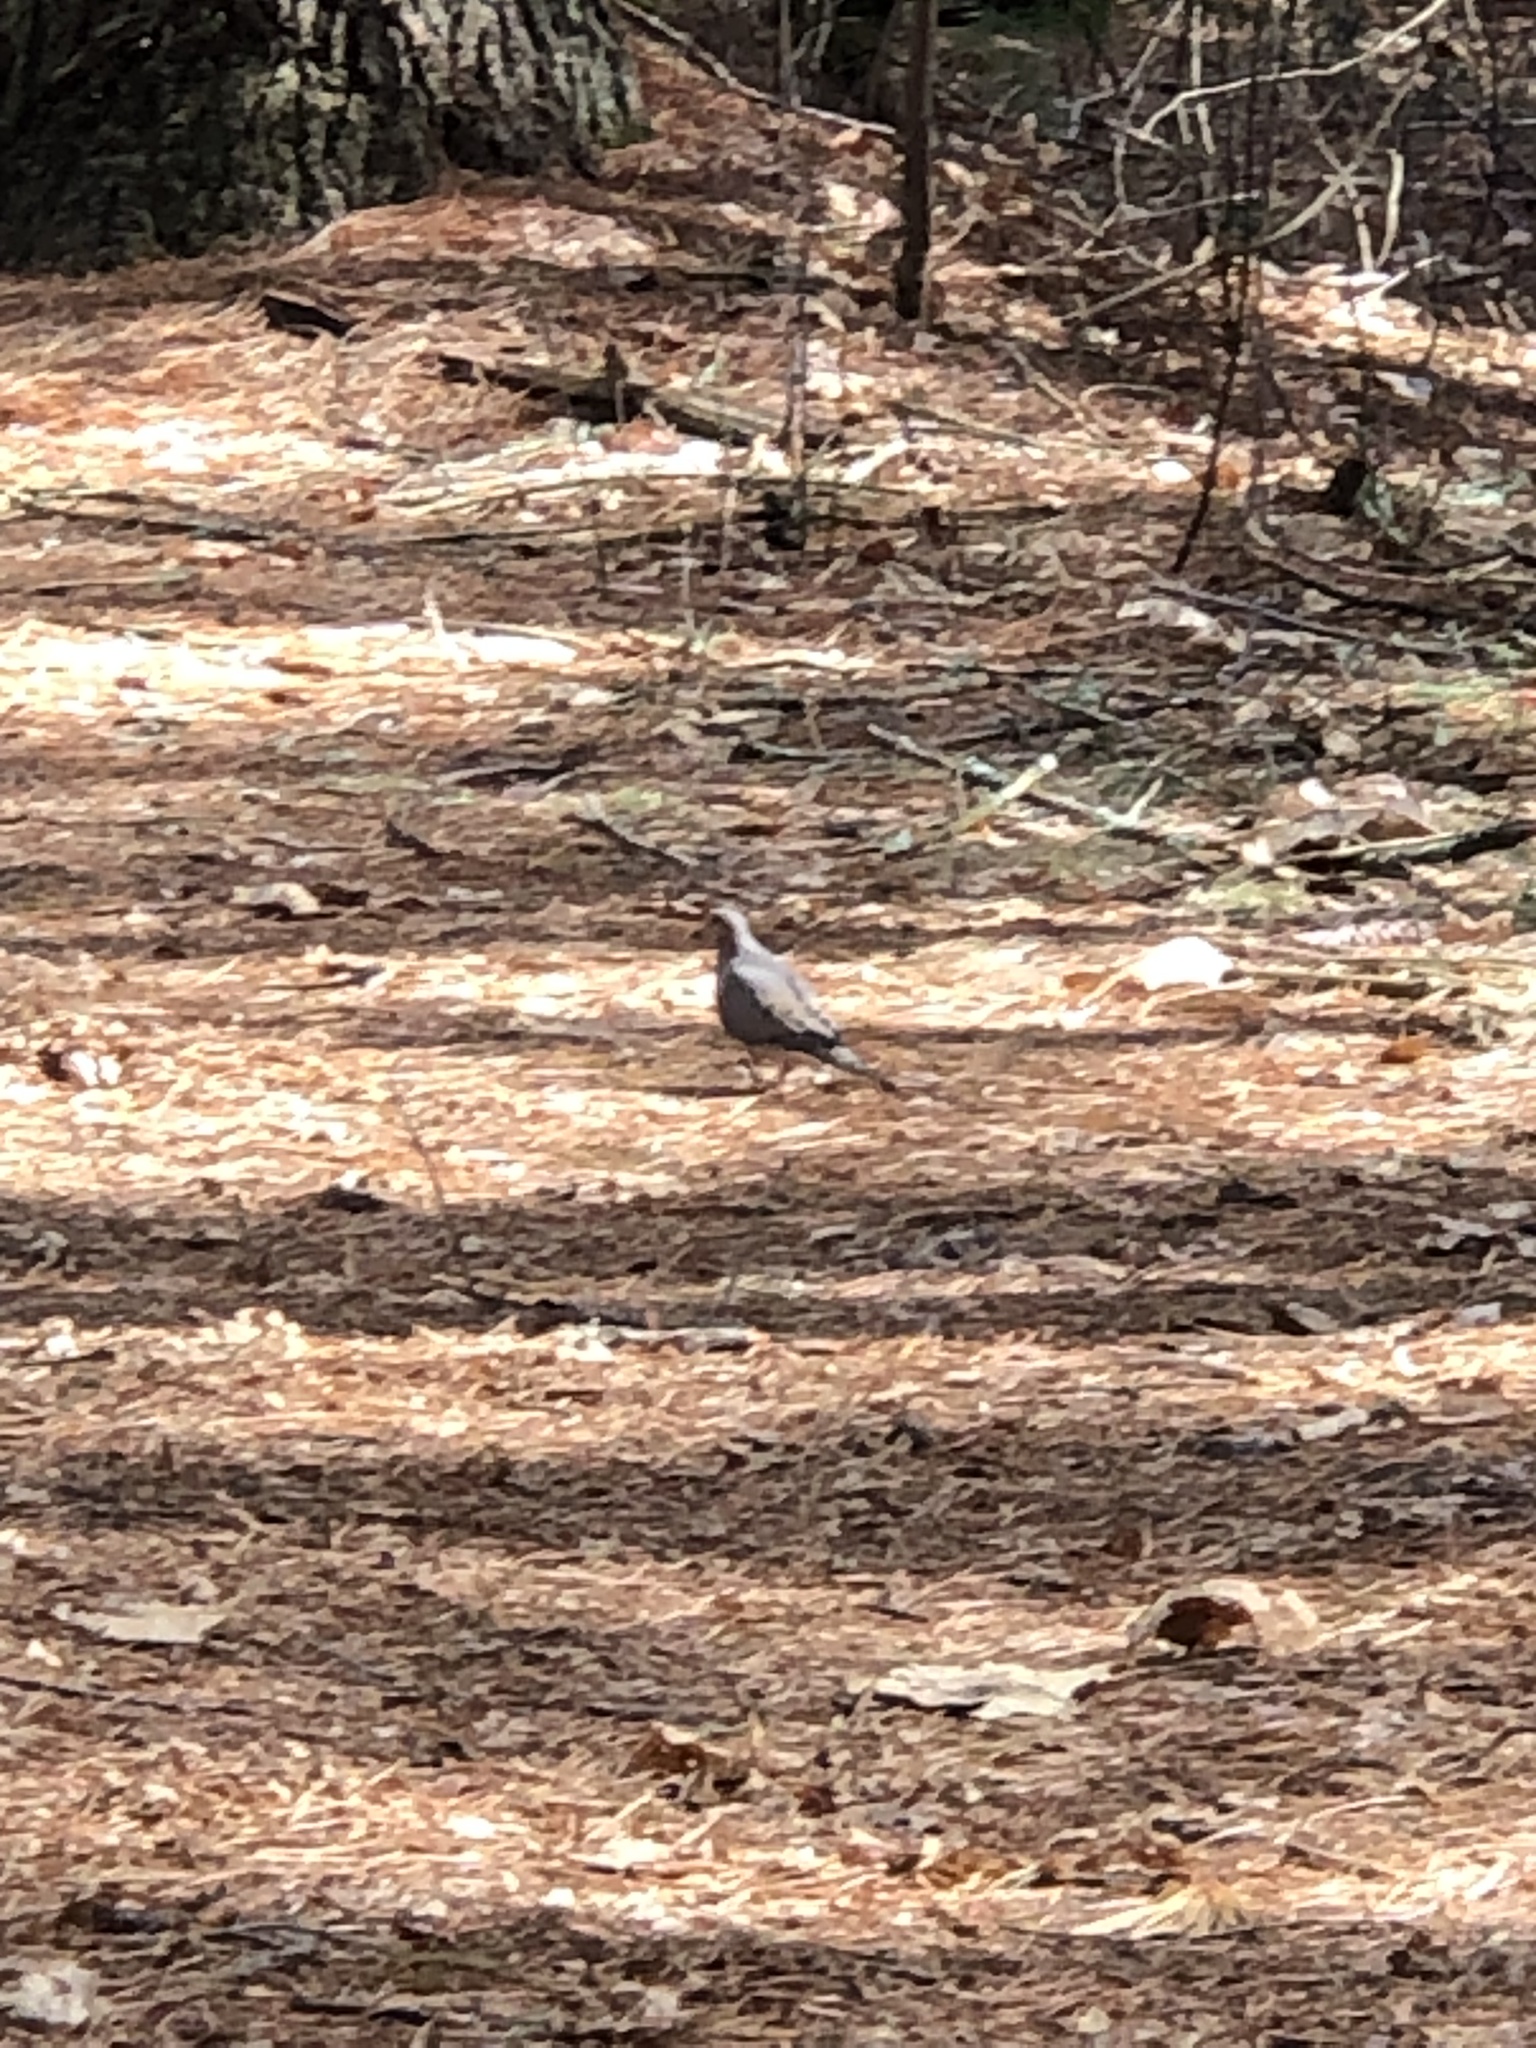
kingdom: Animalia
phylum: Chordata
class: Aves
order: Columbiformes
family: Columbidae
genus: Zenaida
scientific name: Zenaida macroura
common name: Mourning dove
